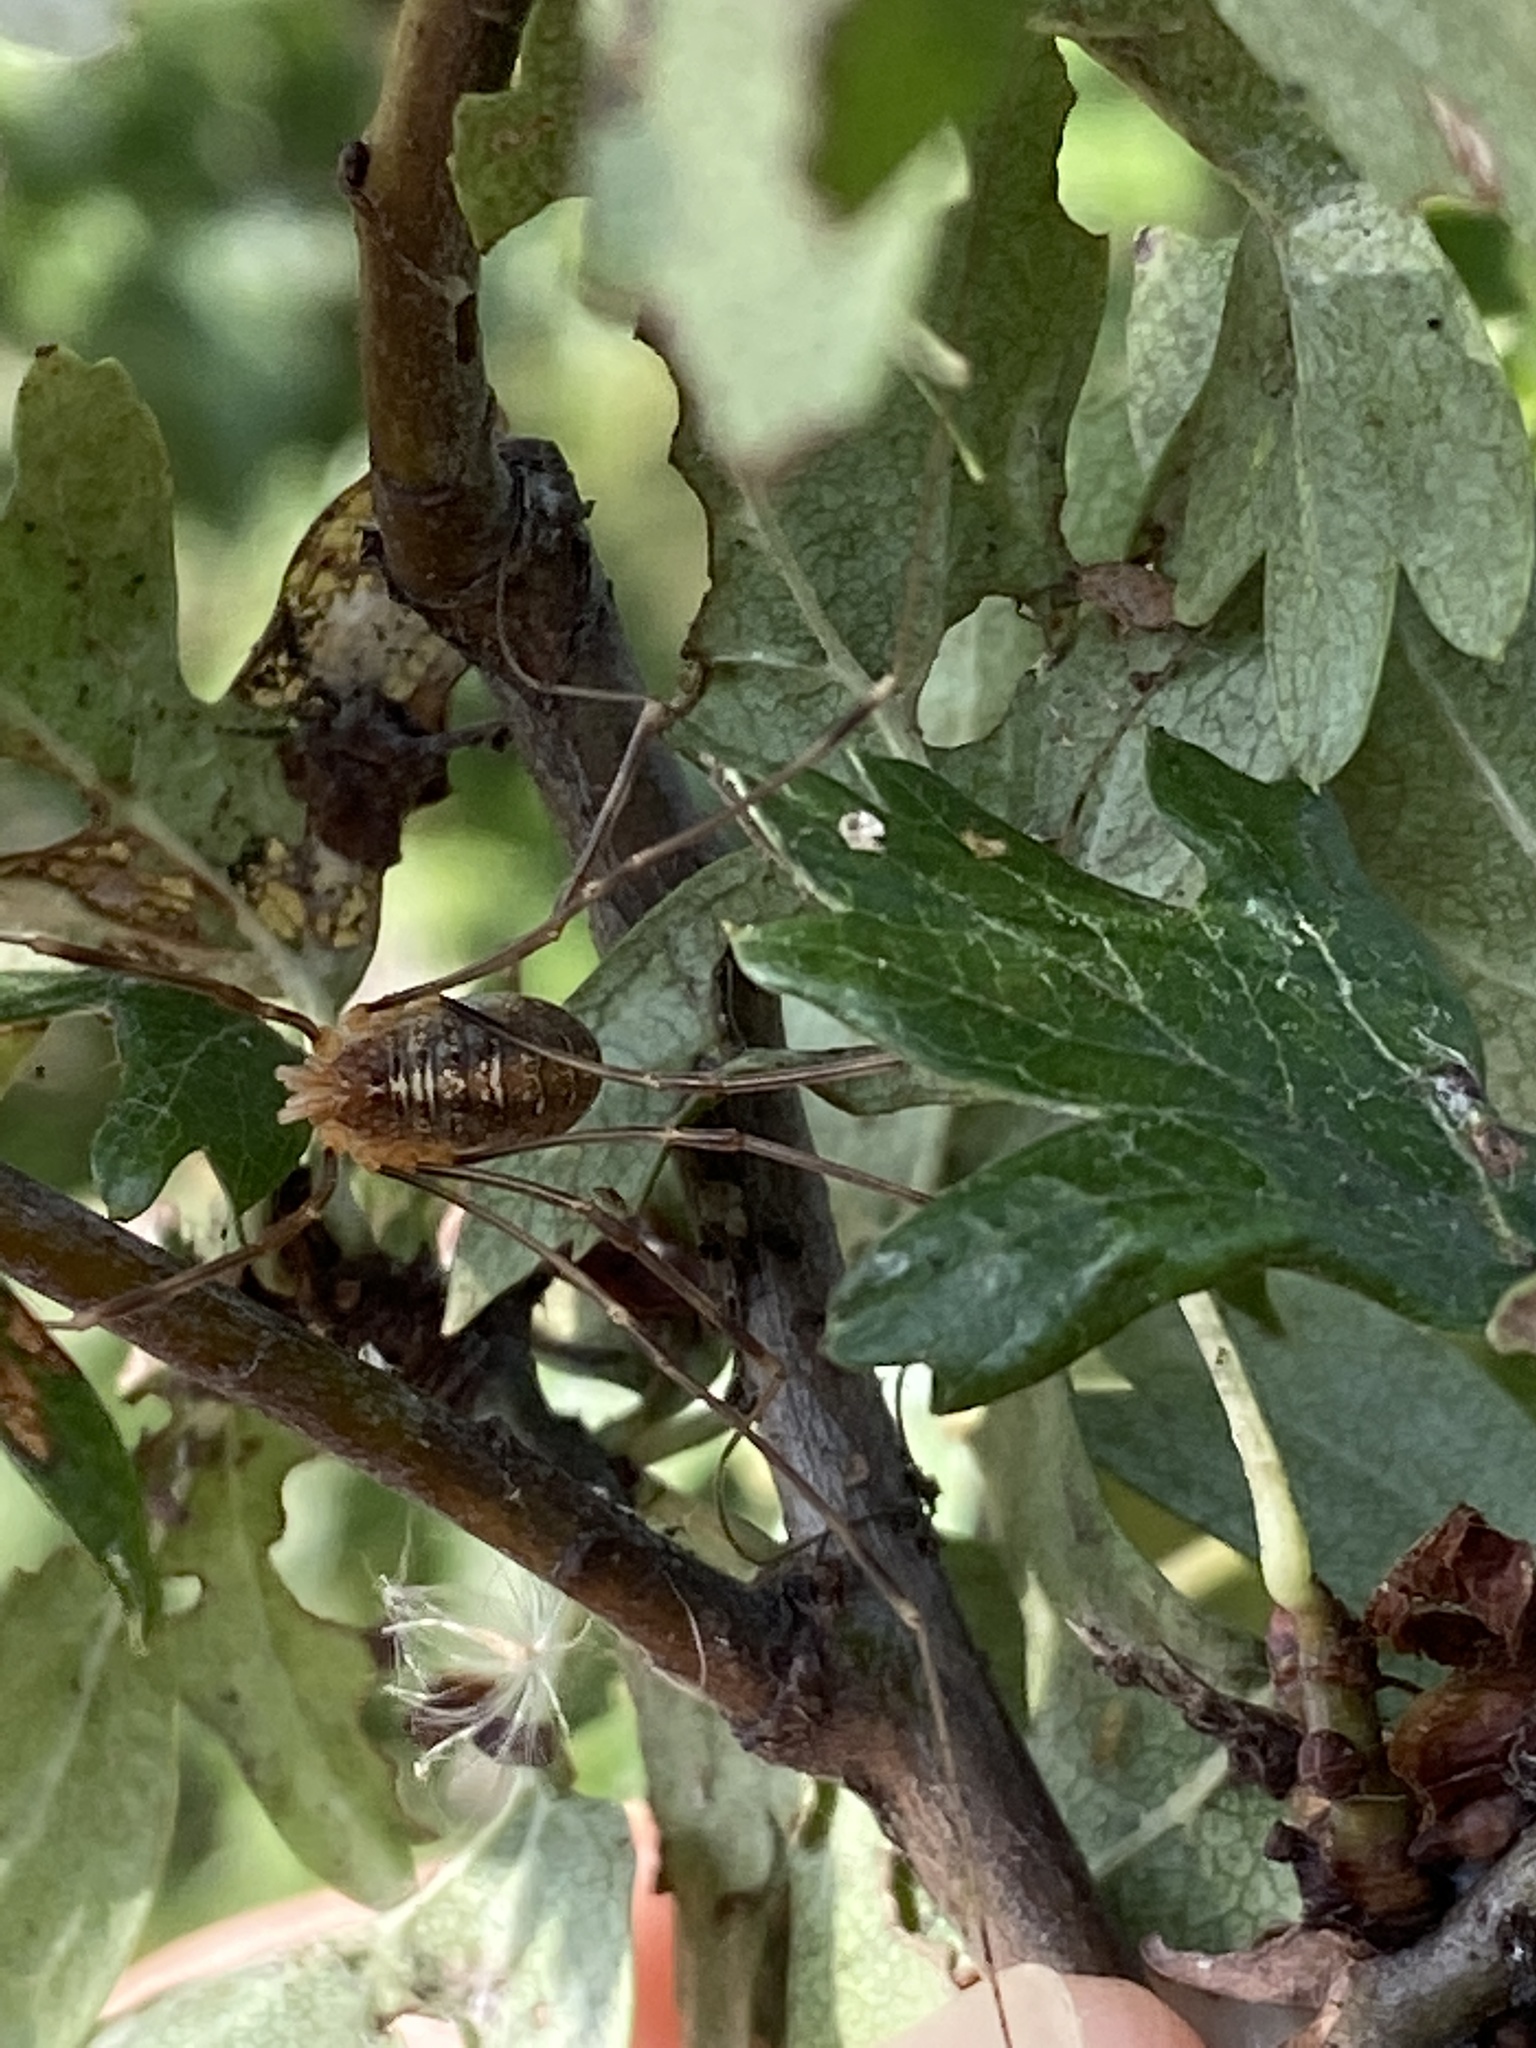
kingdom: Animalia
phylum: Arthropoda
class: Arachnida
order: Opiliones
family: Phalangiidae
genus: Opilio
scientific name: Opilio canestrinii
